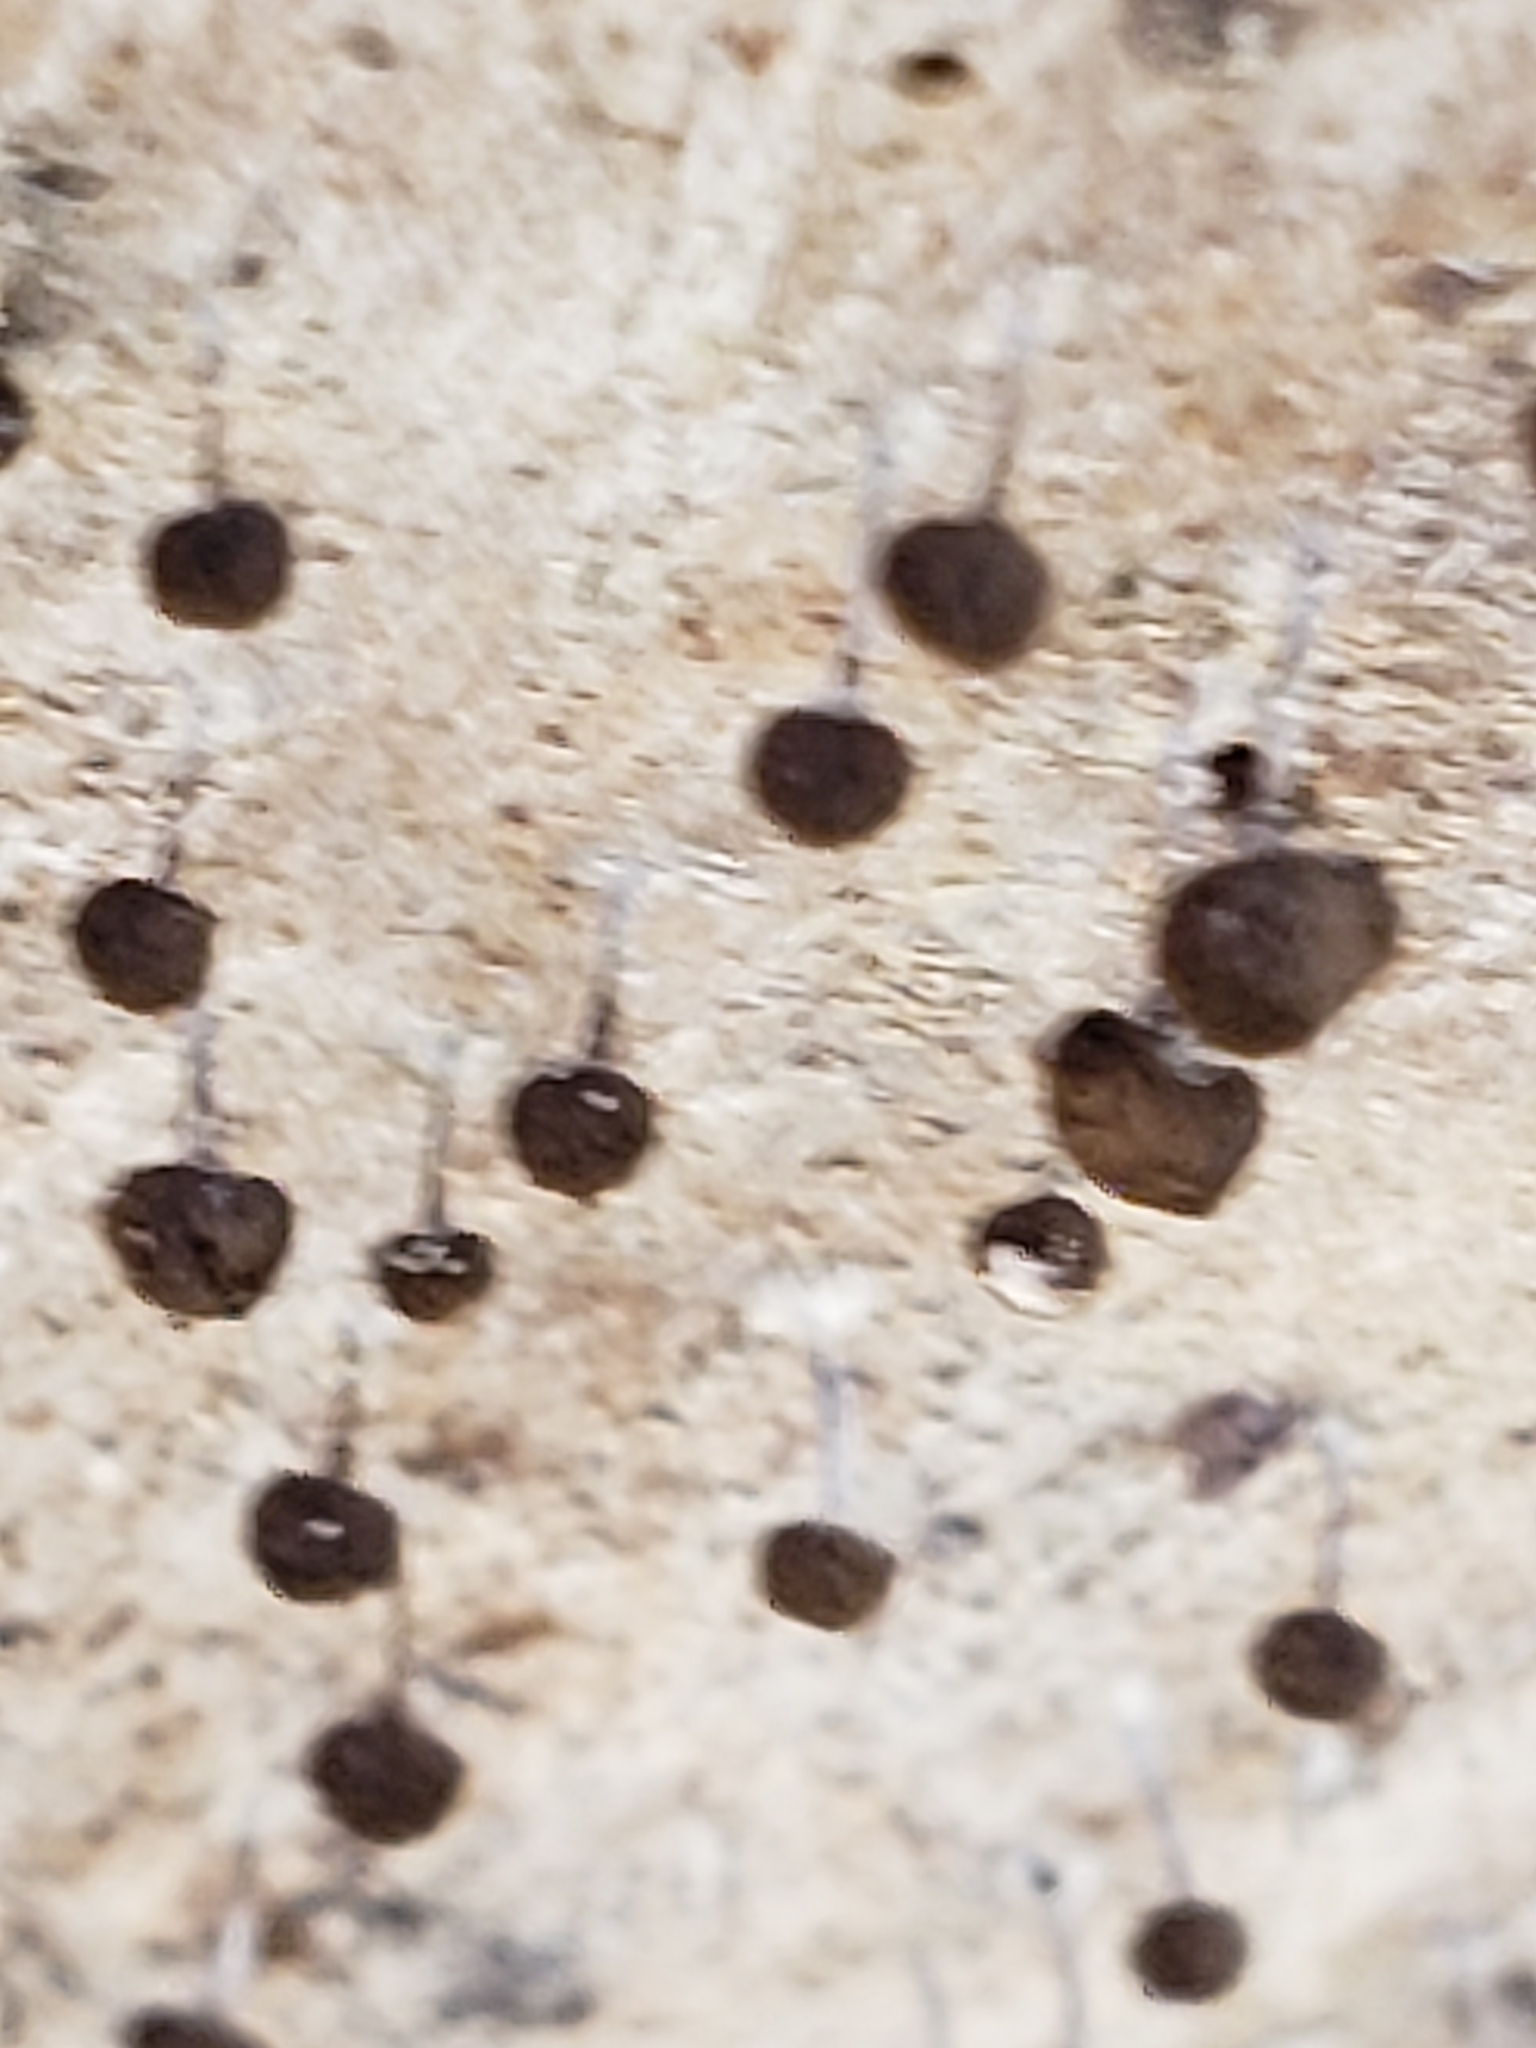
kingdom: Fungi
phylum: Basidiomycota
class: Atractiellomycetes
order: Atractiellales
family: Phleogenaceae
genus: Phleogena
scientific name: Phleogena faginea
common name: Fenugreek stalkball
